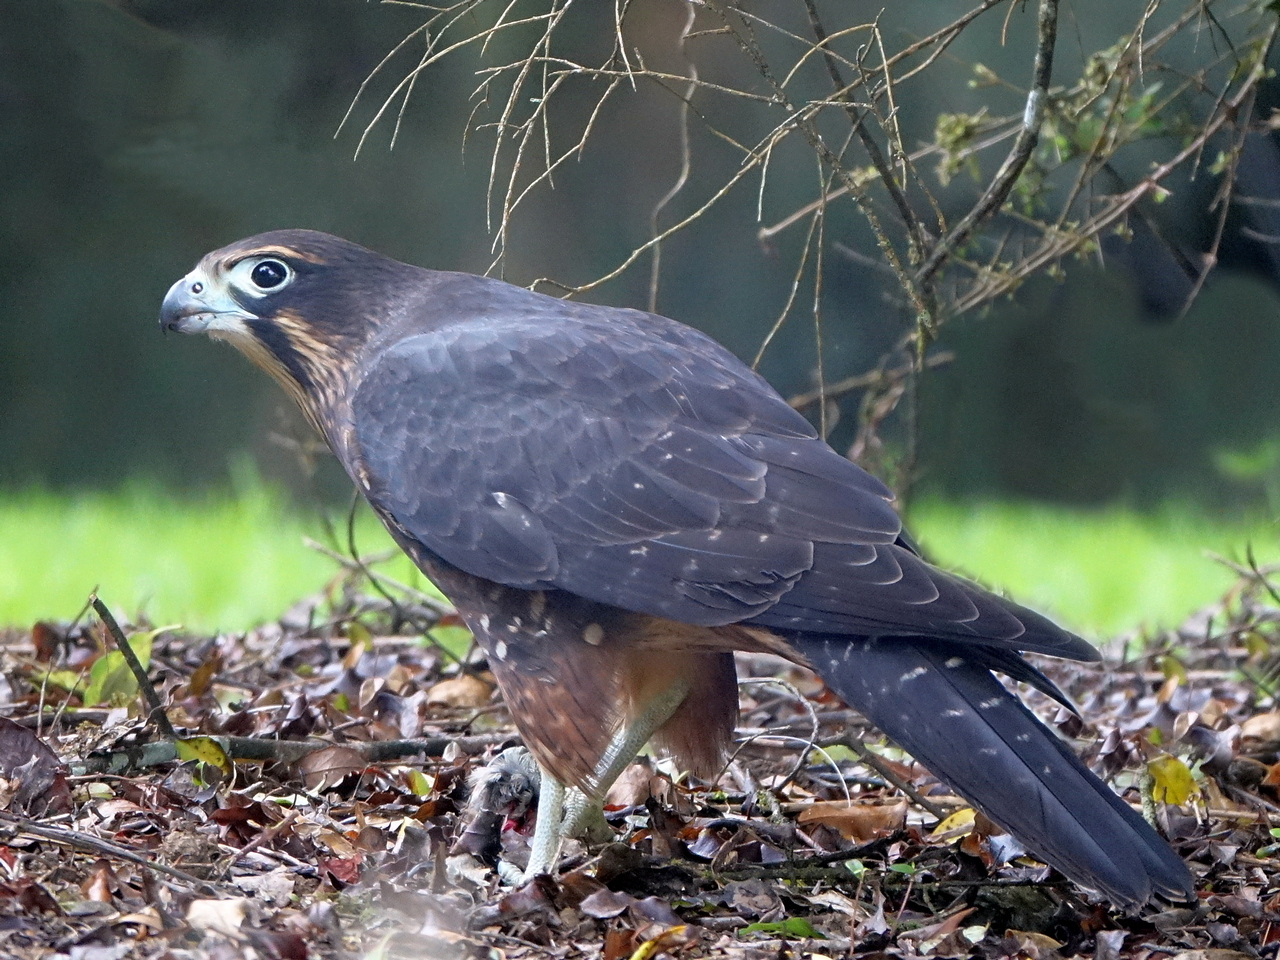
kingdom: Animalia
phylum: Chordata
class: Aves
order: Falconiformes
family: Falconidae
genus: Falco
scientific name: Falco novaeseelandiae
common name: New zealand falcon
